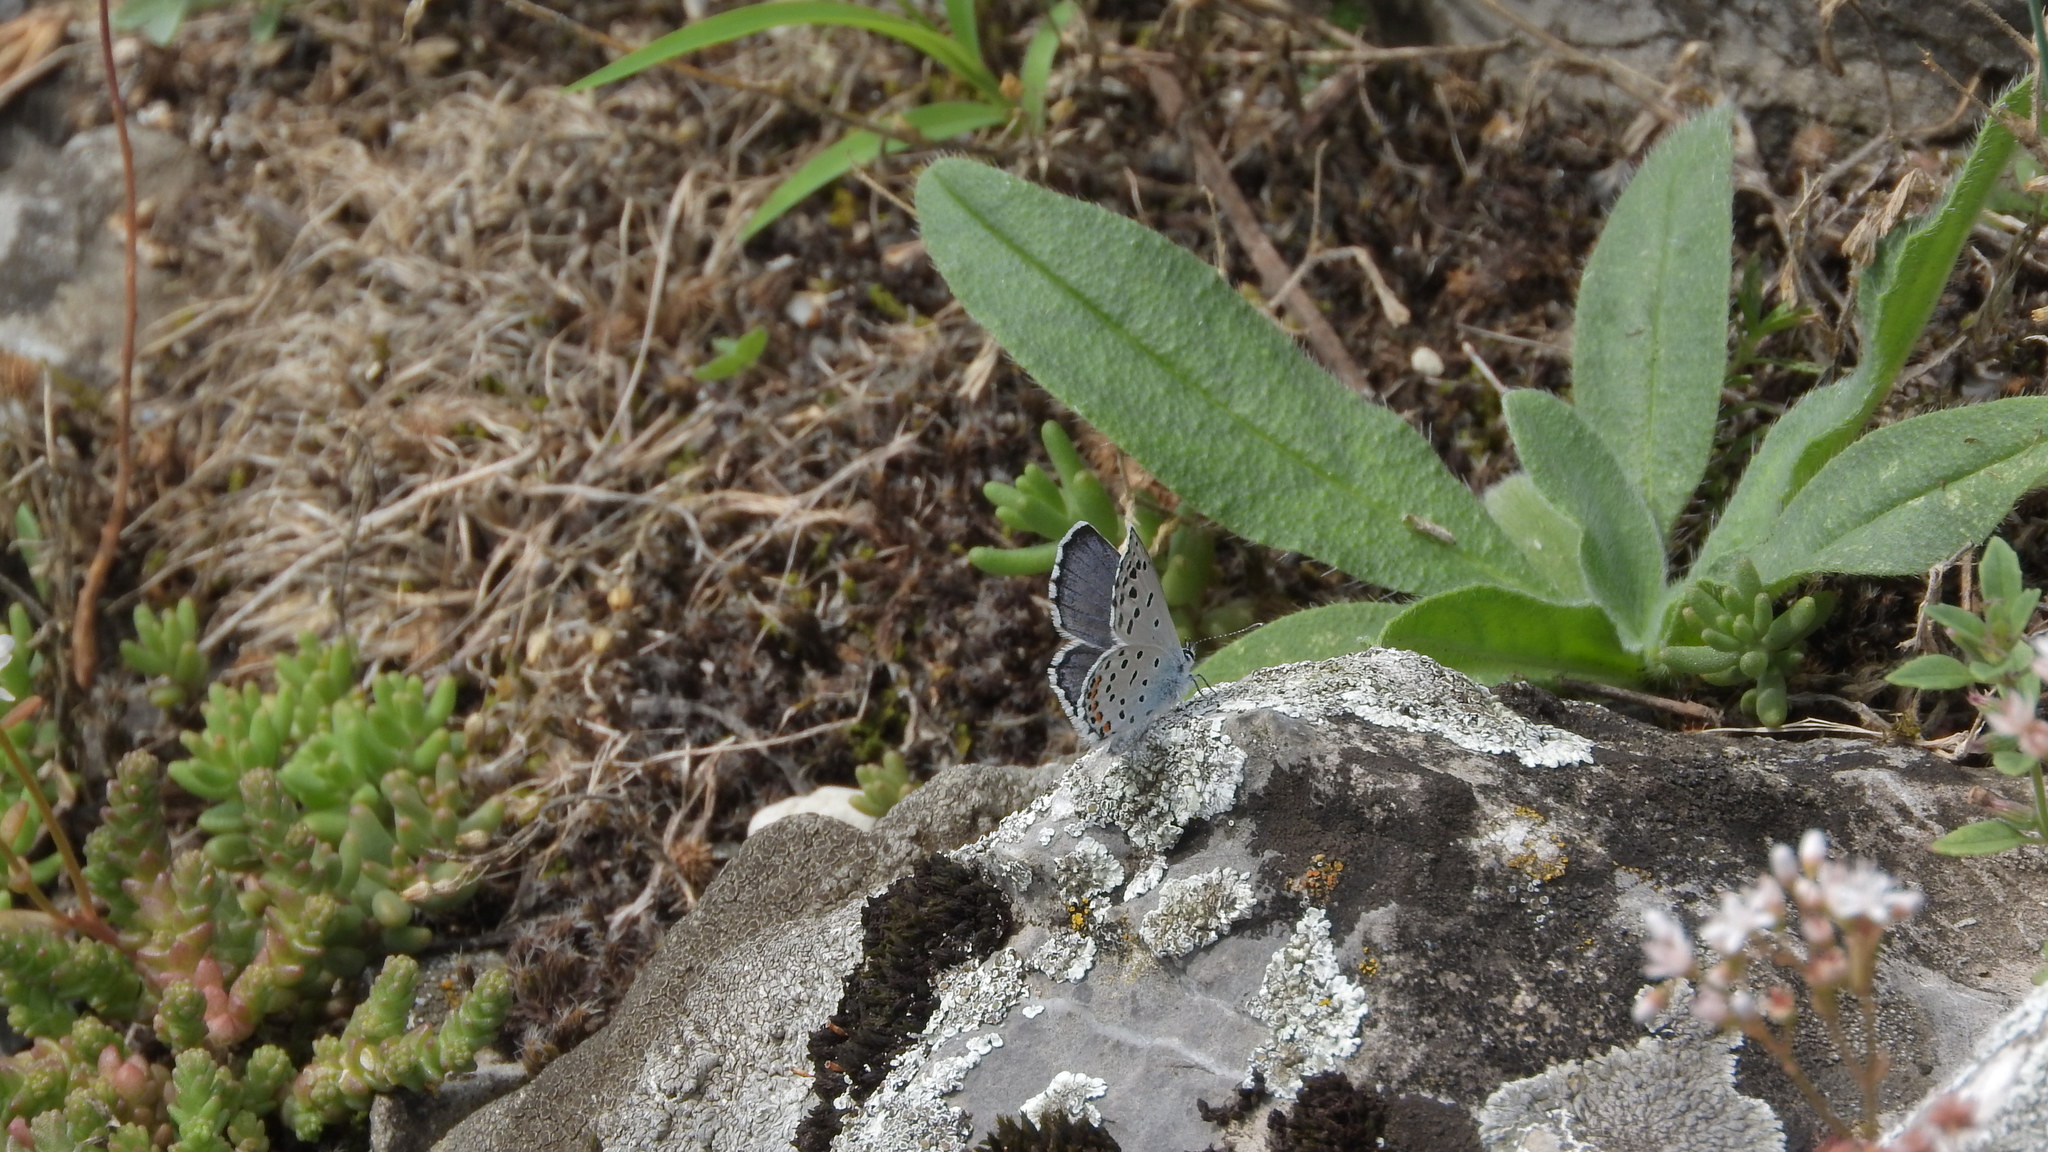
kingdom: Animalia
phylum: Arthropoda
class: Insecta
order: Lepidoptera
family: Lycaenidae
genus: Pseudophilotes
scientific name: Pseudophilotes baton
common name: Baton blue
